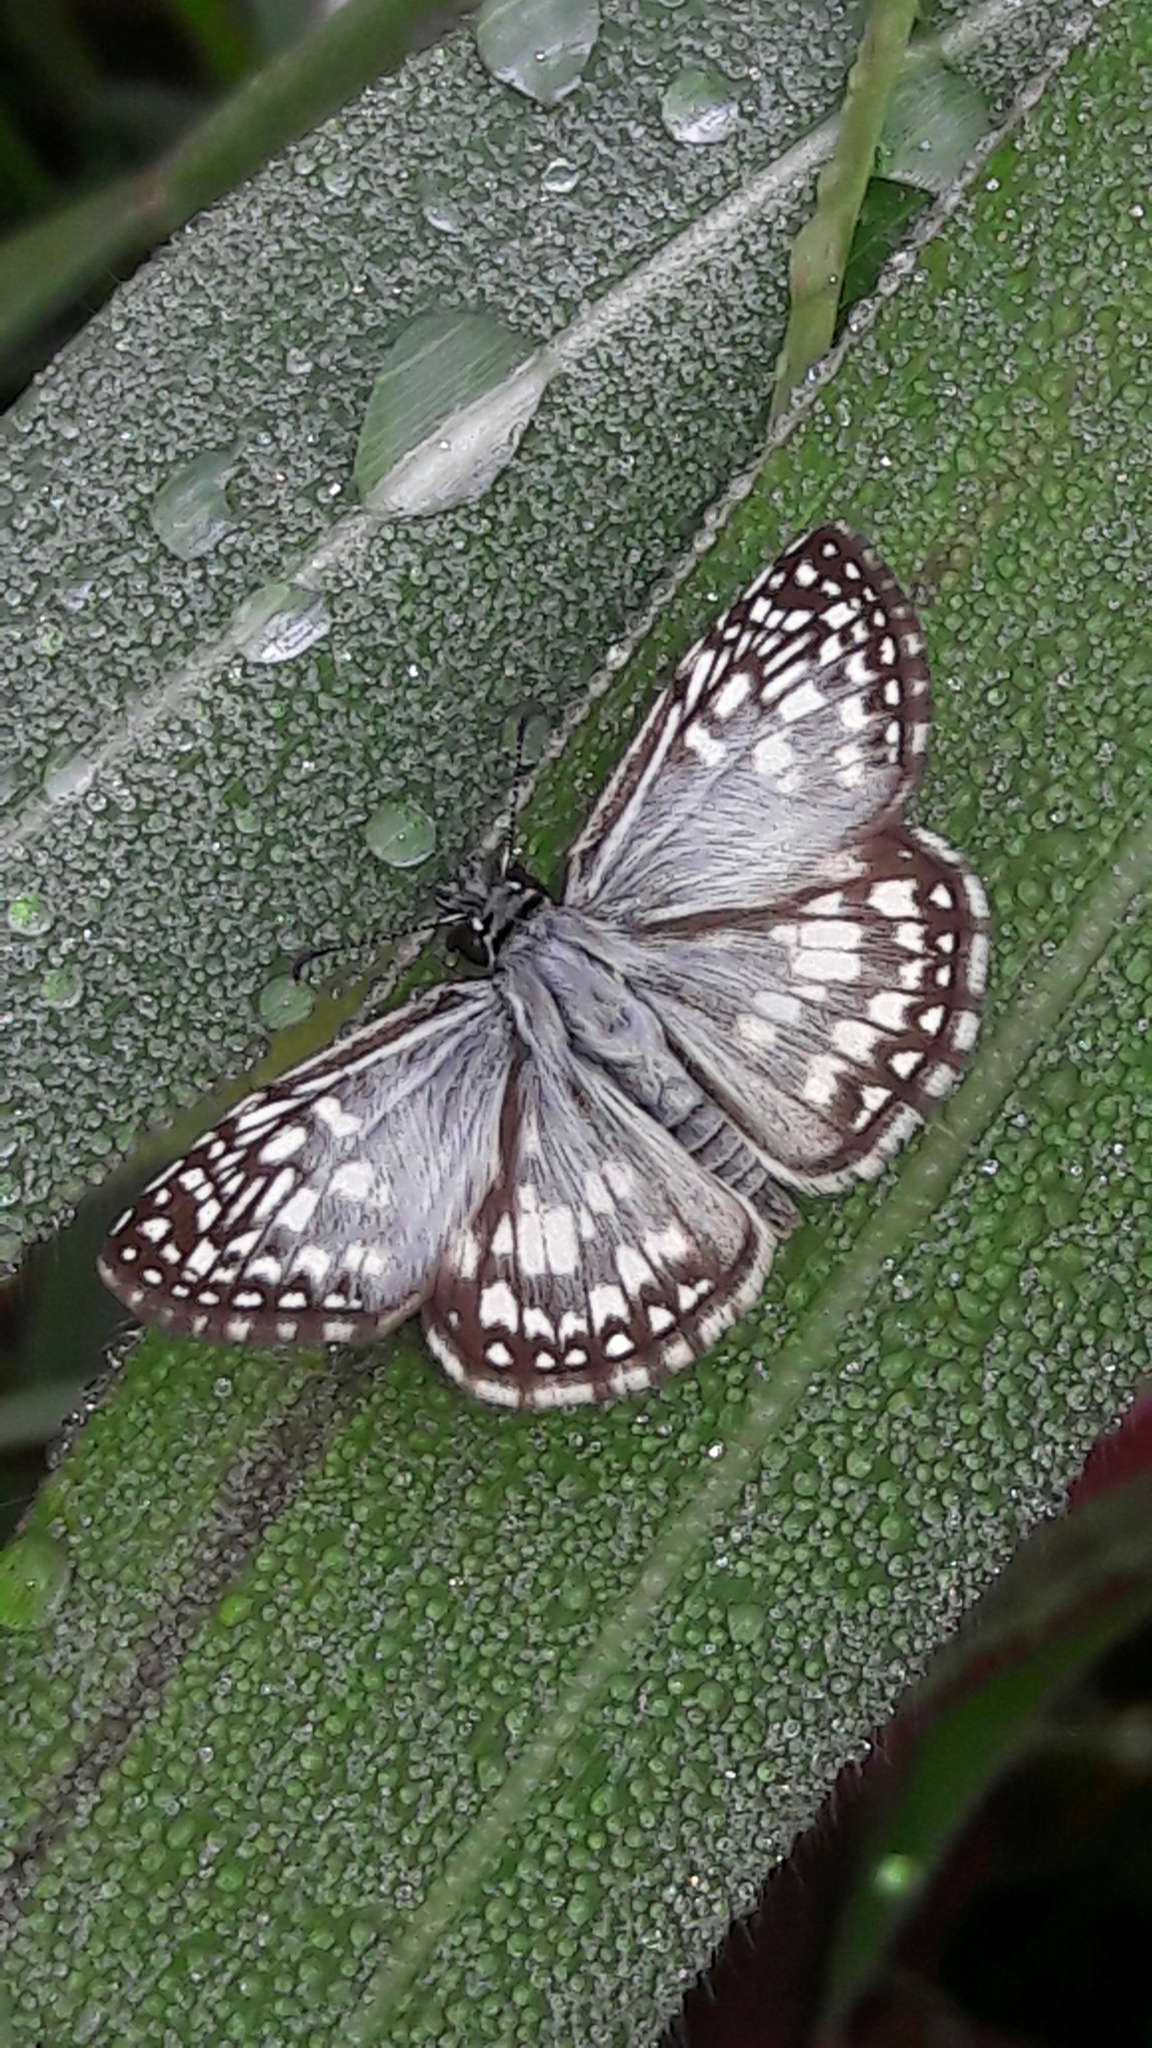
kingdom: Animalia
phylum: Arthropoda
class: Insecta
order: Lepidoptera
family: Hesperiidae
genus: Pyrgus
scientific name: Pyrgus oileus
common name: Tropical checkered-skipper
